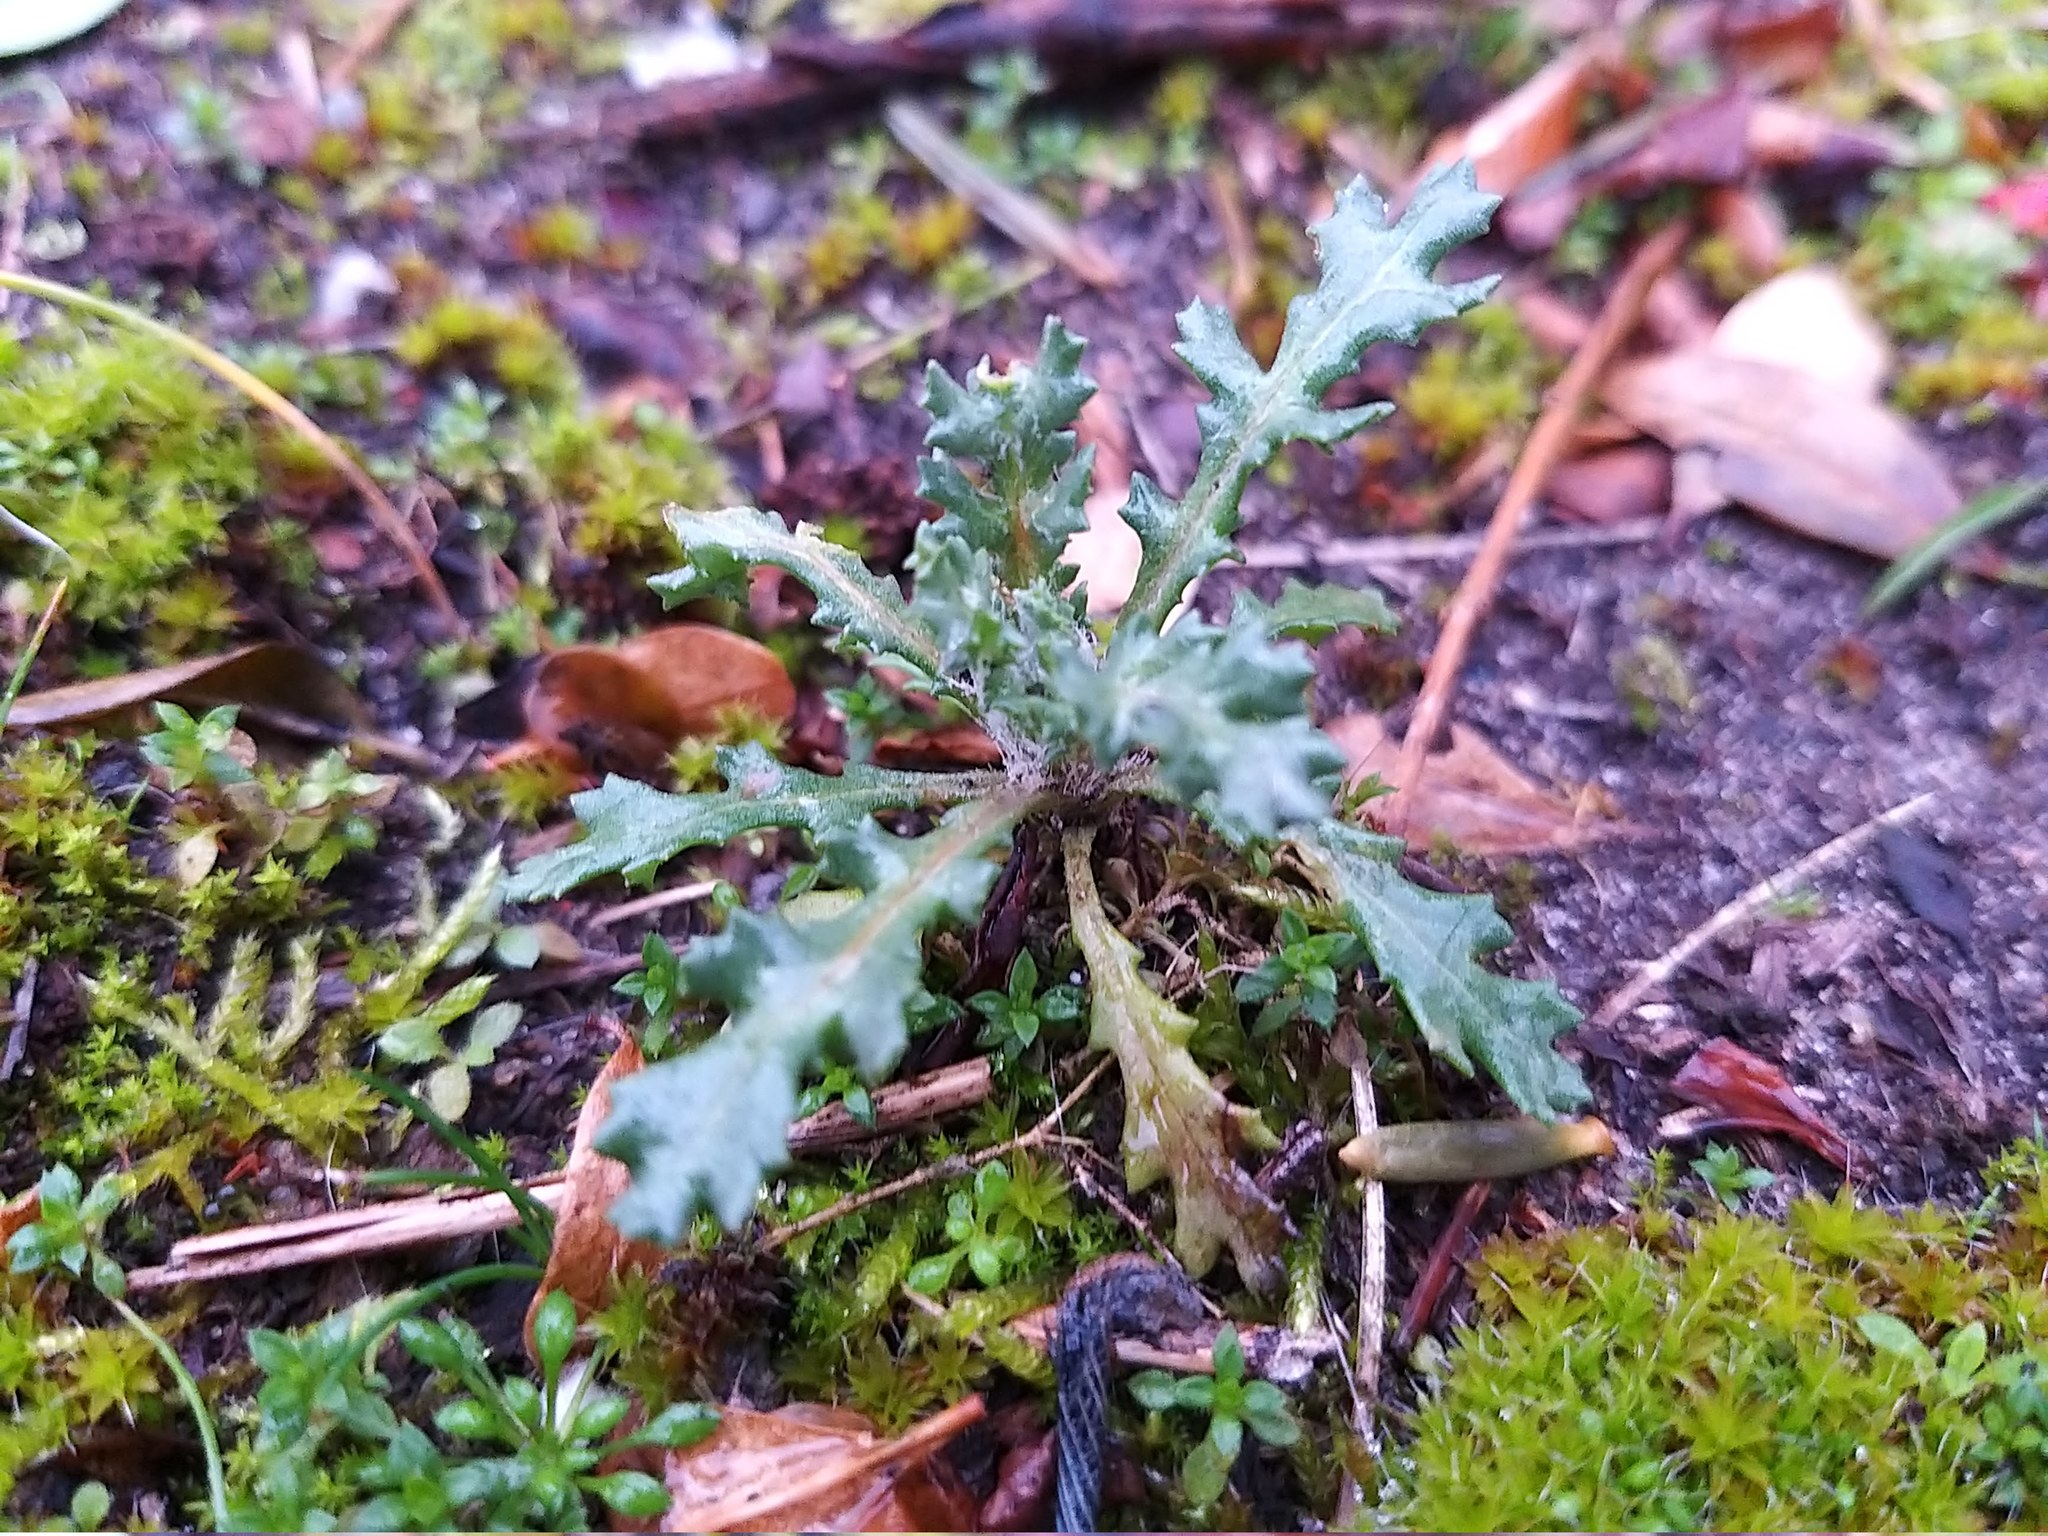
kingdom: Plantae
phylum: Tracheophyta
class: Magnoliopsida
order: Asterales
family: Asteraceae
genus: Senecio
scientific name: Senecio vulgaris
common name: Old-man-in-the-spring
